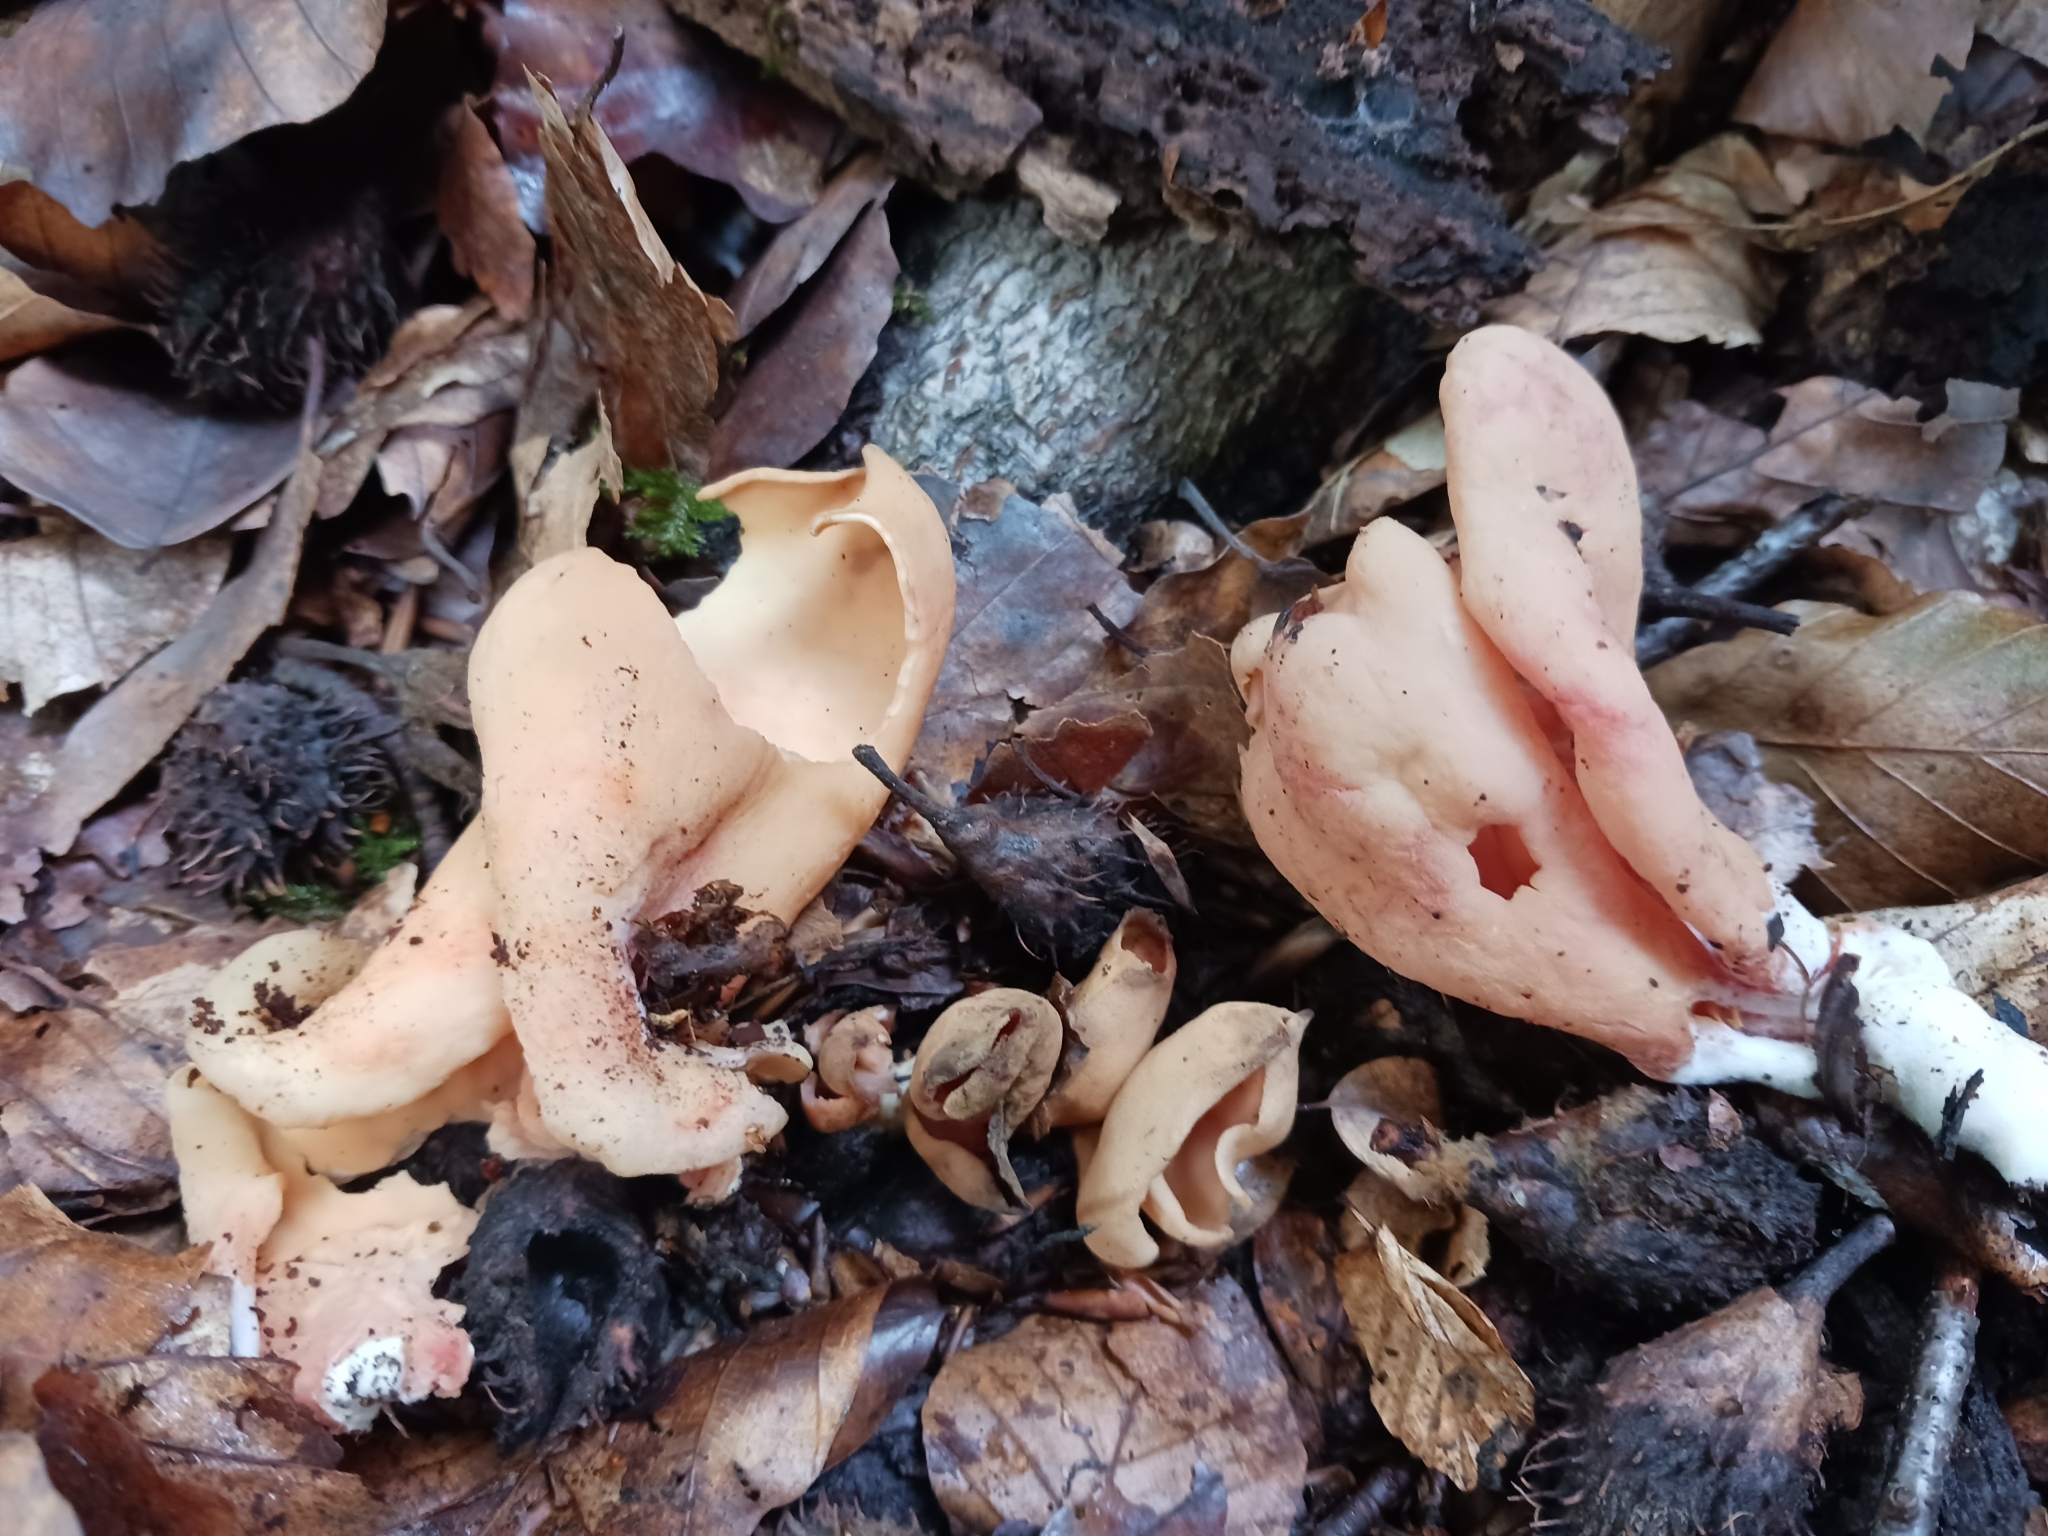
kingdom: Fungi
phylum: Ascomycota
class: Pezizomycetes
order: Pezizales
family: Otideaceae
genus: Otidea
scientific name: Otidea onotica
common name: Hare's ear
